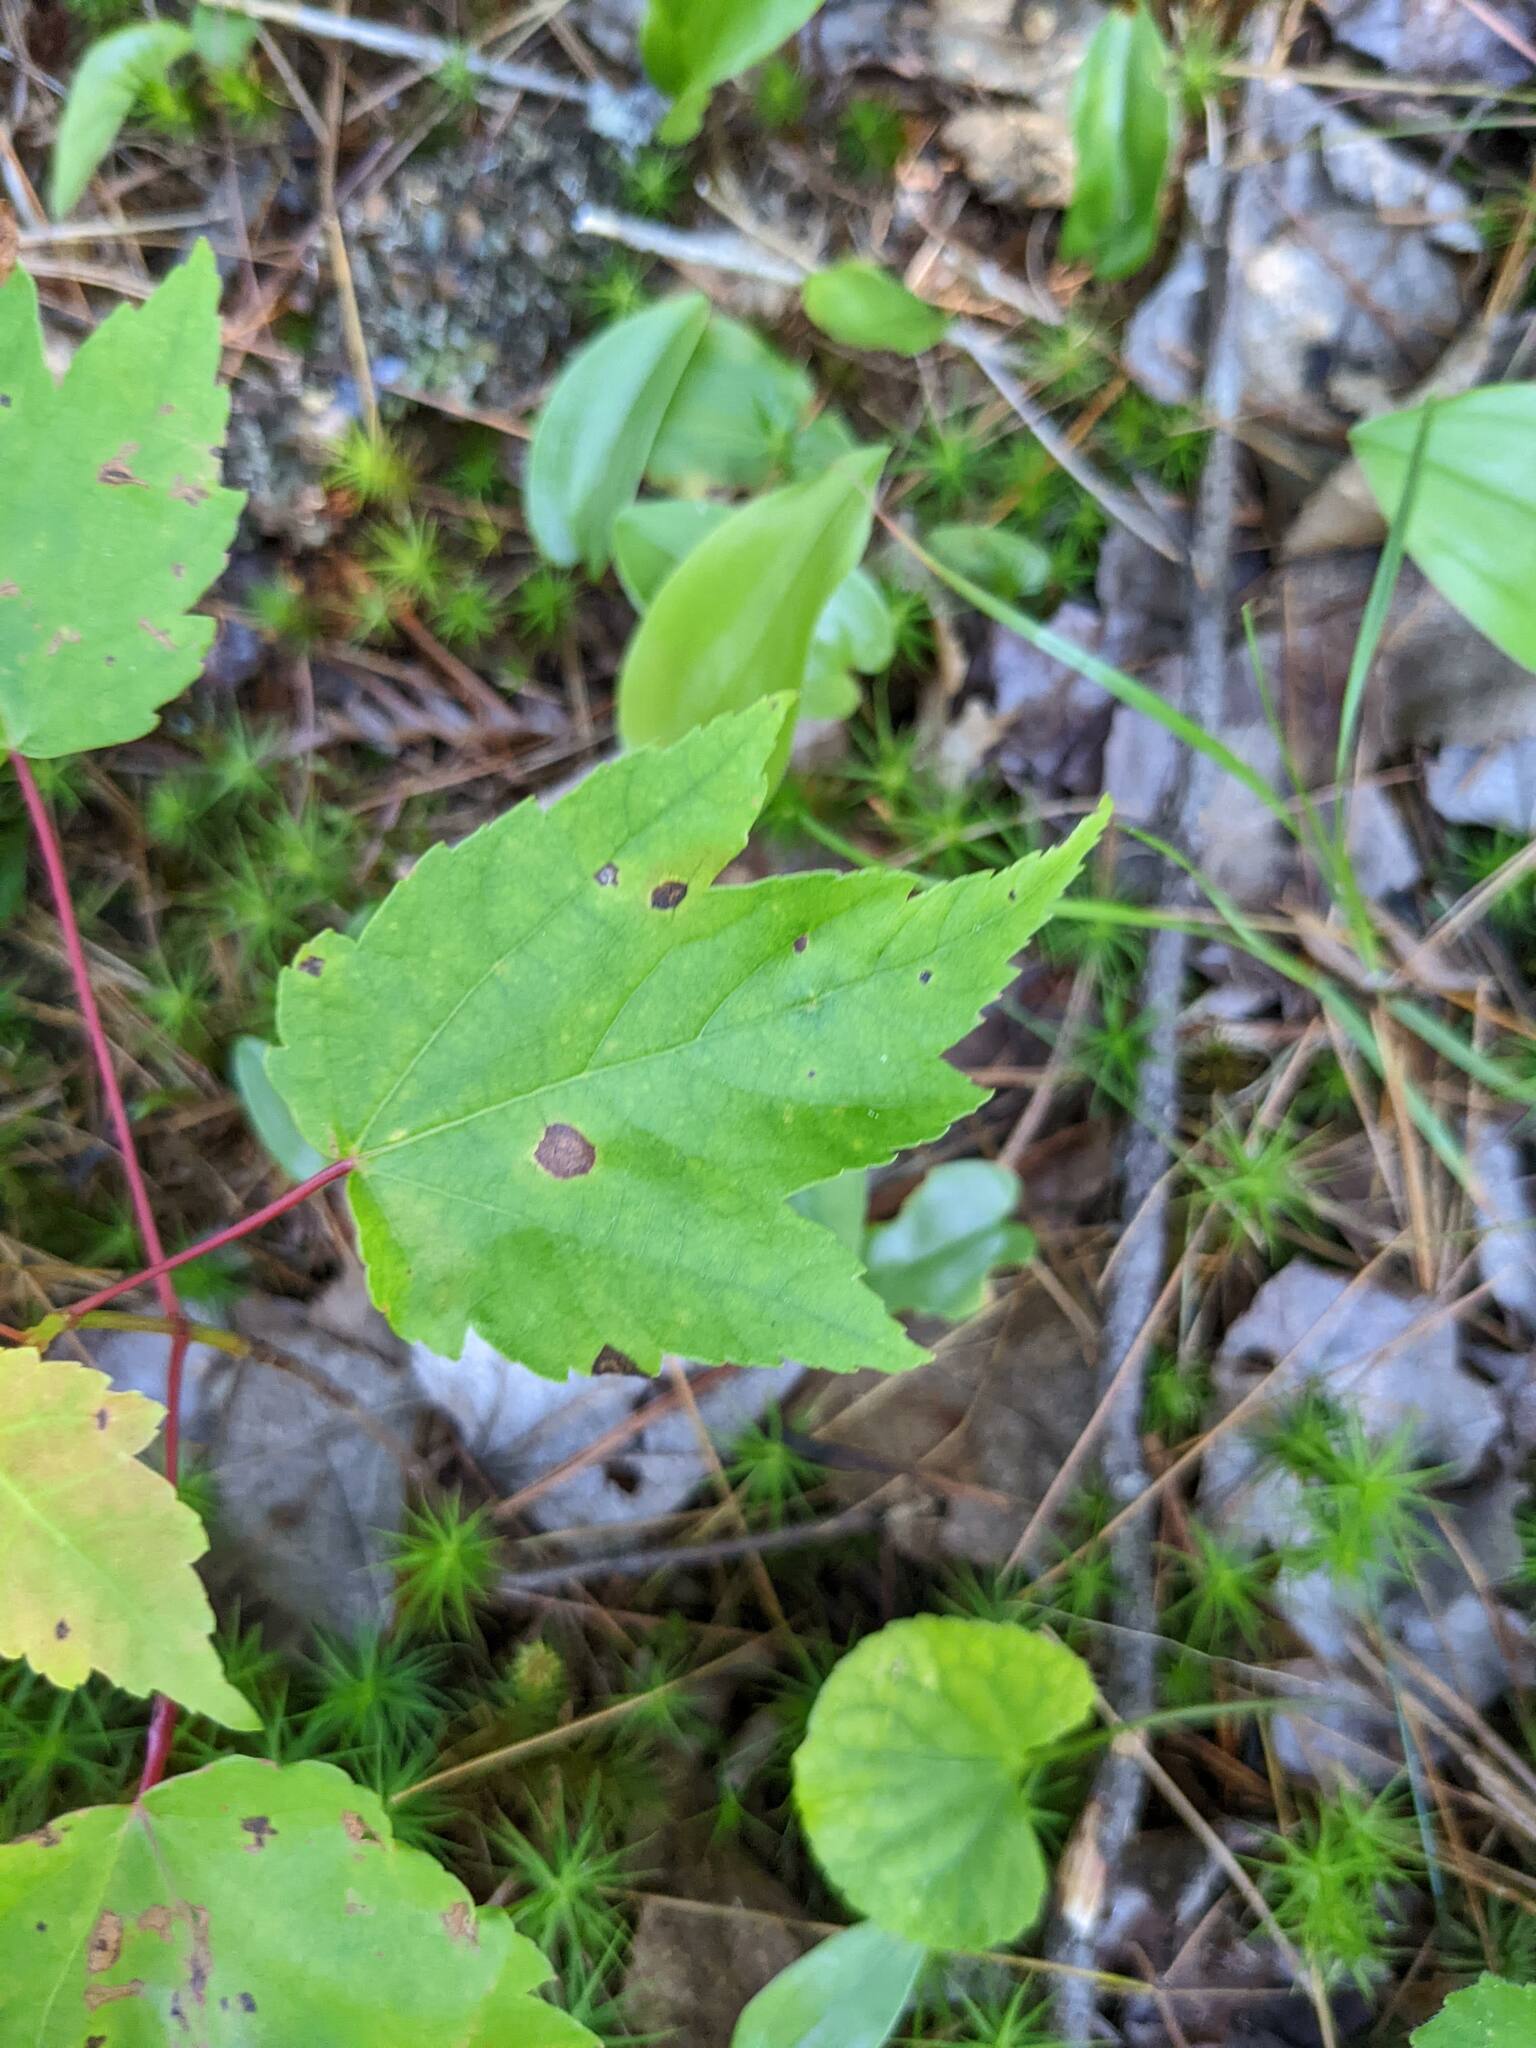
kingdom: Plantae
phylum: Tracheophyta
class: Magnoliopsida
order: Sapindales
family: Sapindaceae
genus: Acer
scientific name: Acer rubrum
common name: Red maple
